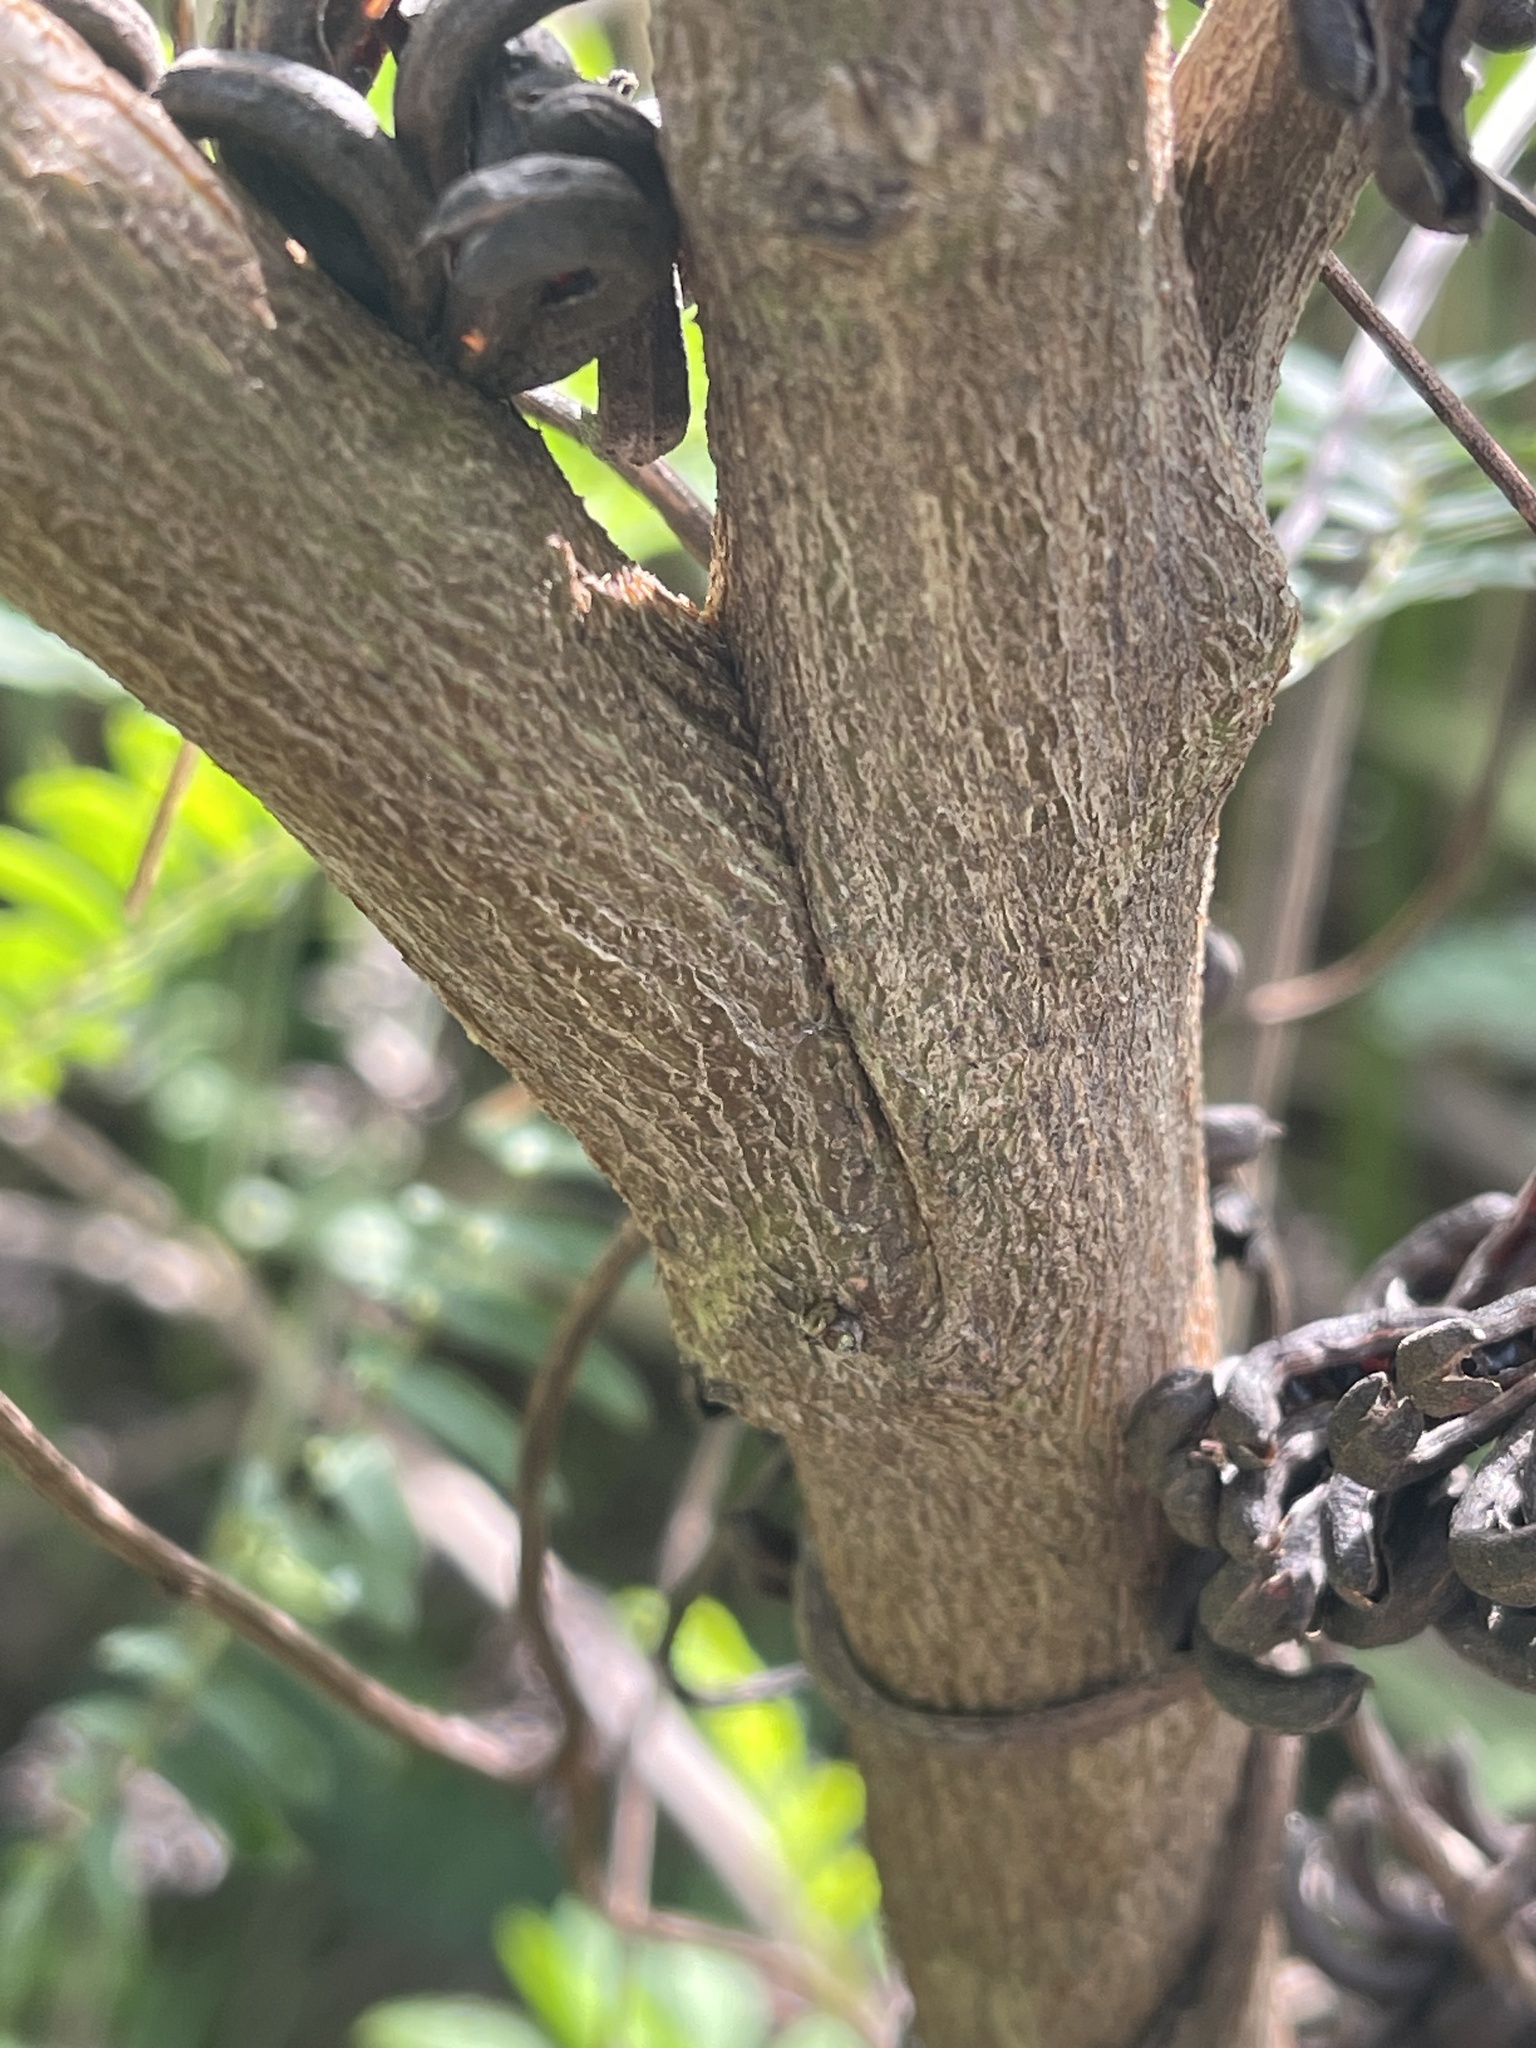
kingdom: Plantae
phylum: Tracheophyta
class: Magnoliopsida
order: Fabales
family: Fabaceae
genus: Indigofera
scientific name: Indigofera suffruticosa
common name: Anil de pasto
